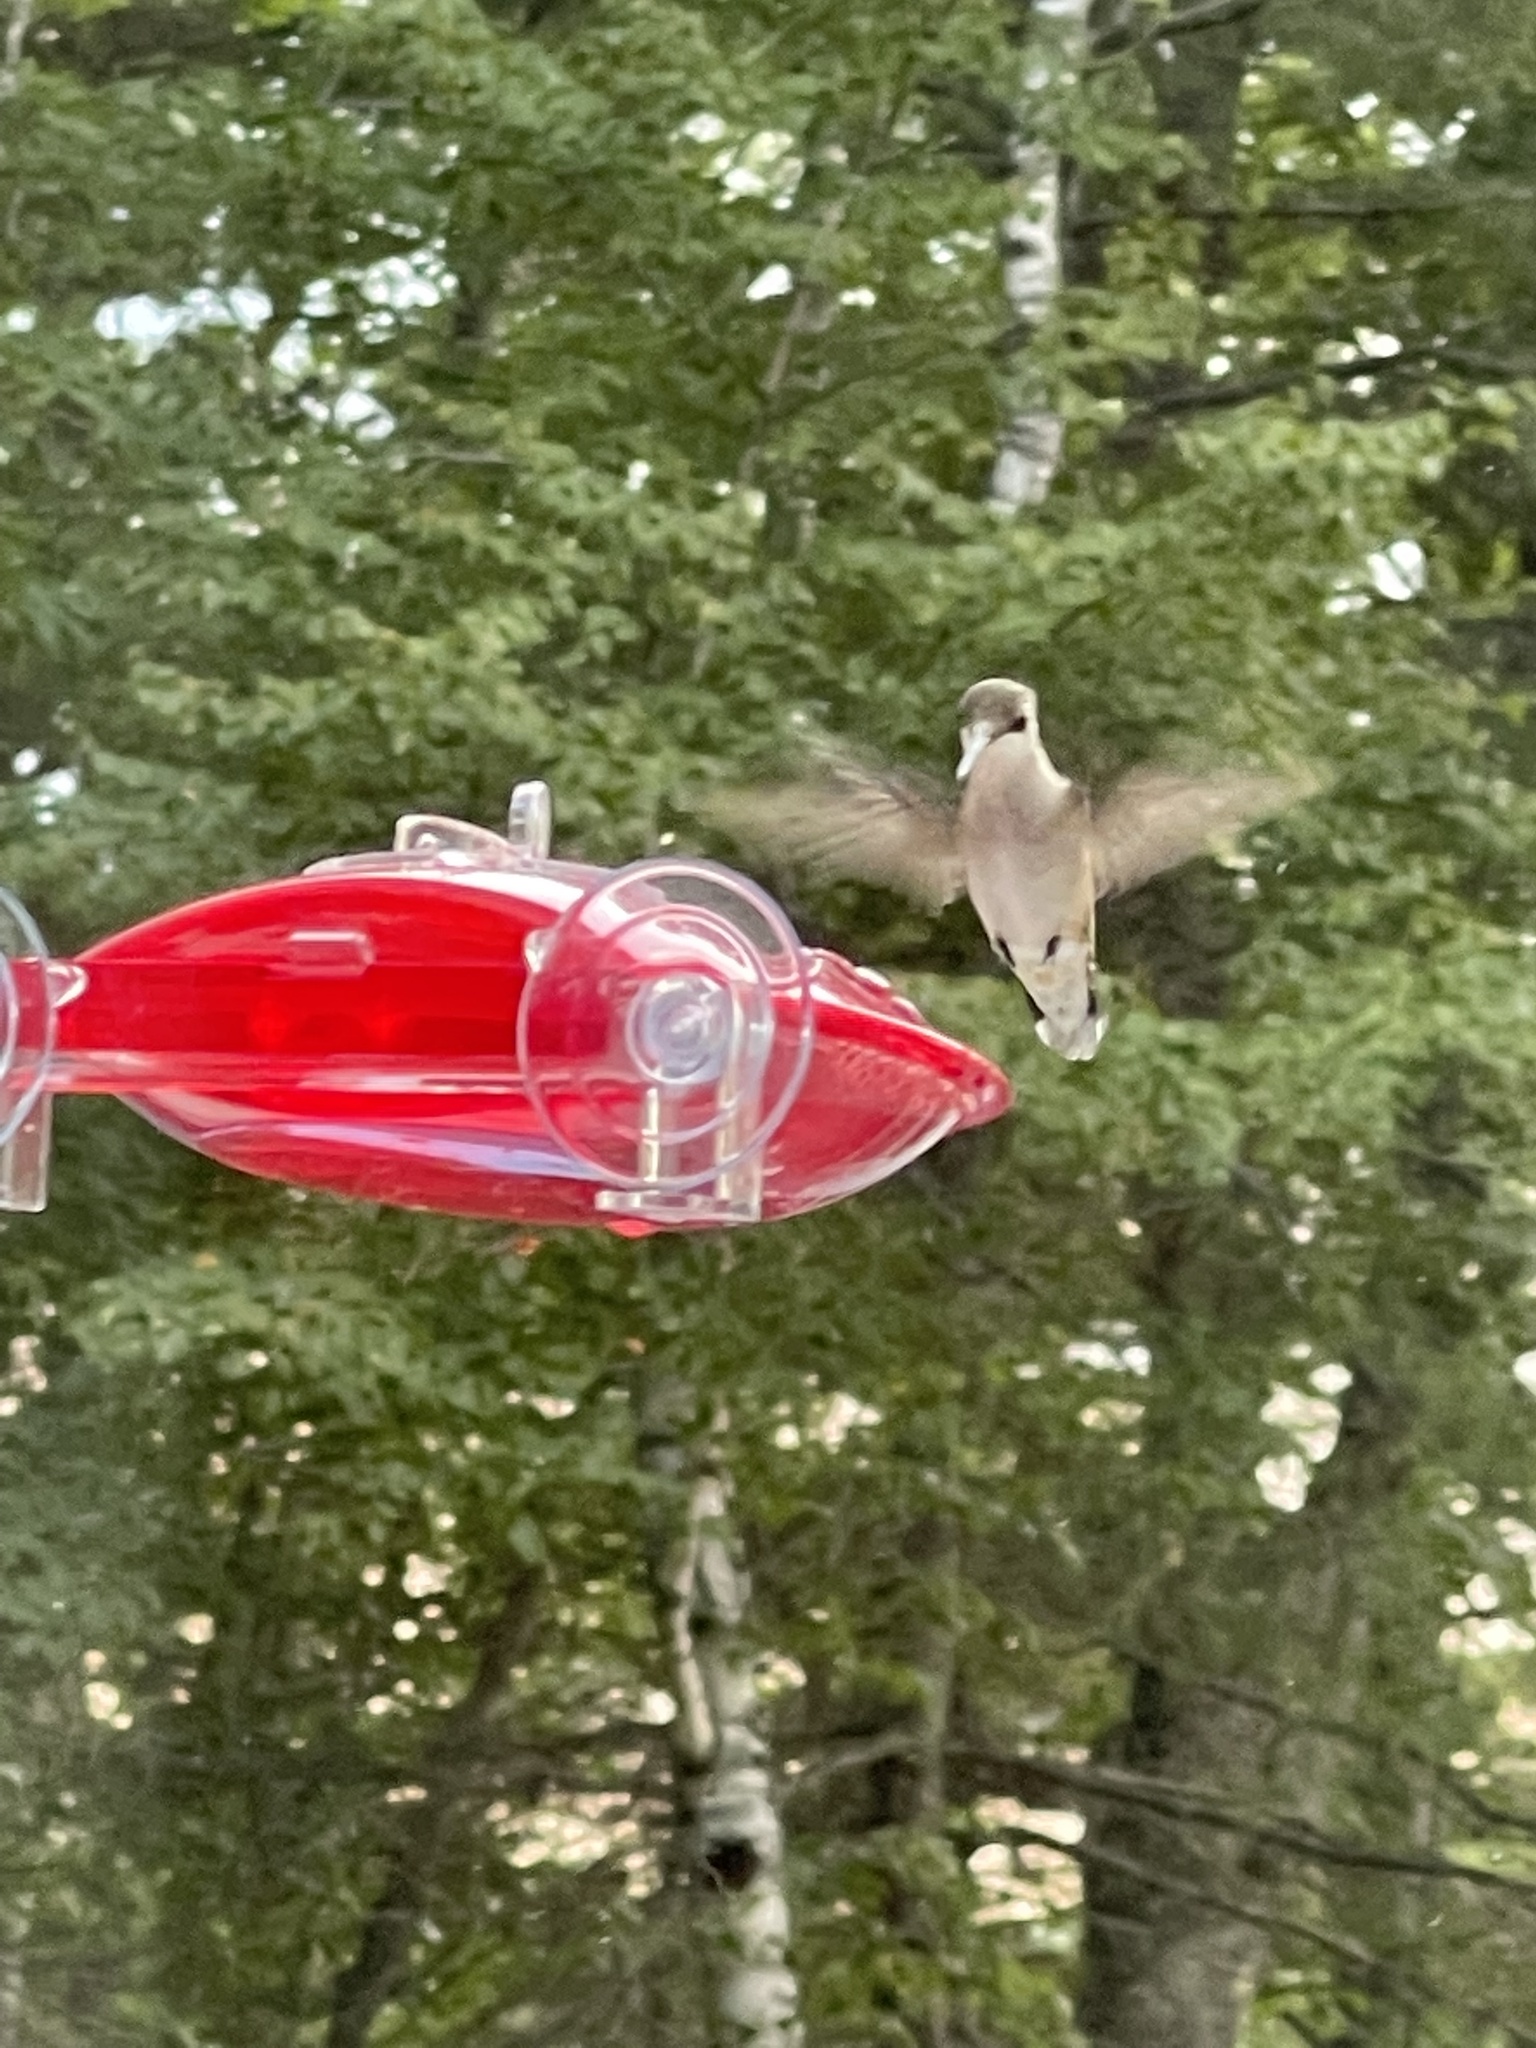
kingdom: Animalia
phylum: Chordata
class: Aves
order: Apodiformes
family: Trochilidae
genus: Archilochus
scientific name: Archilochus colubris
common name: Ruby-throated hummingbird
